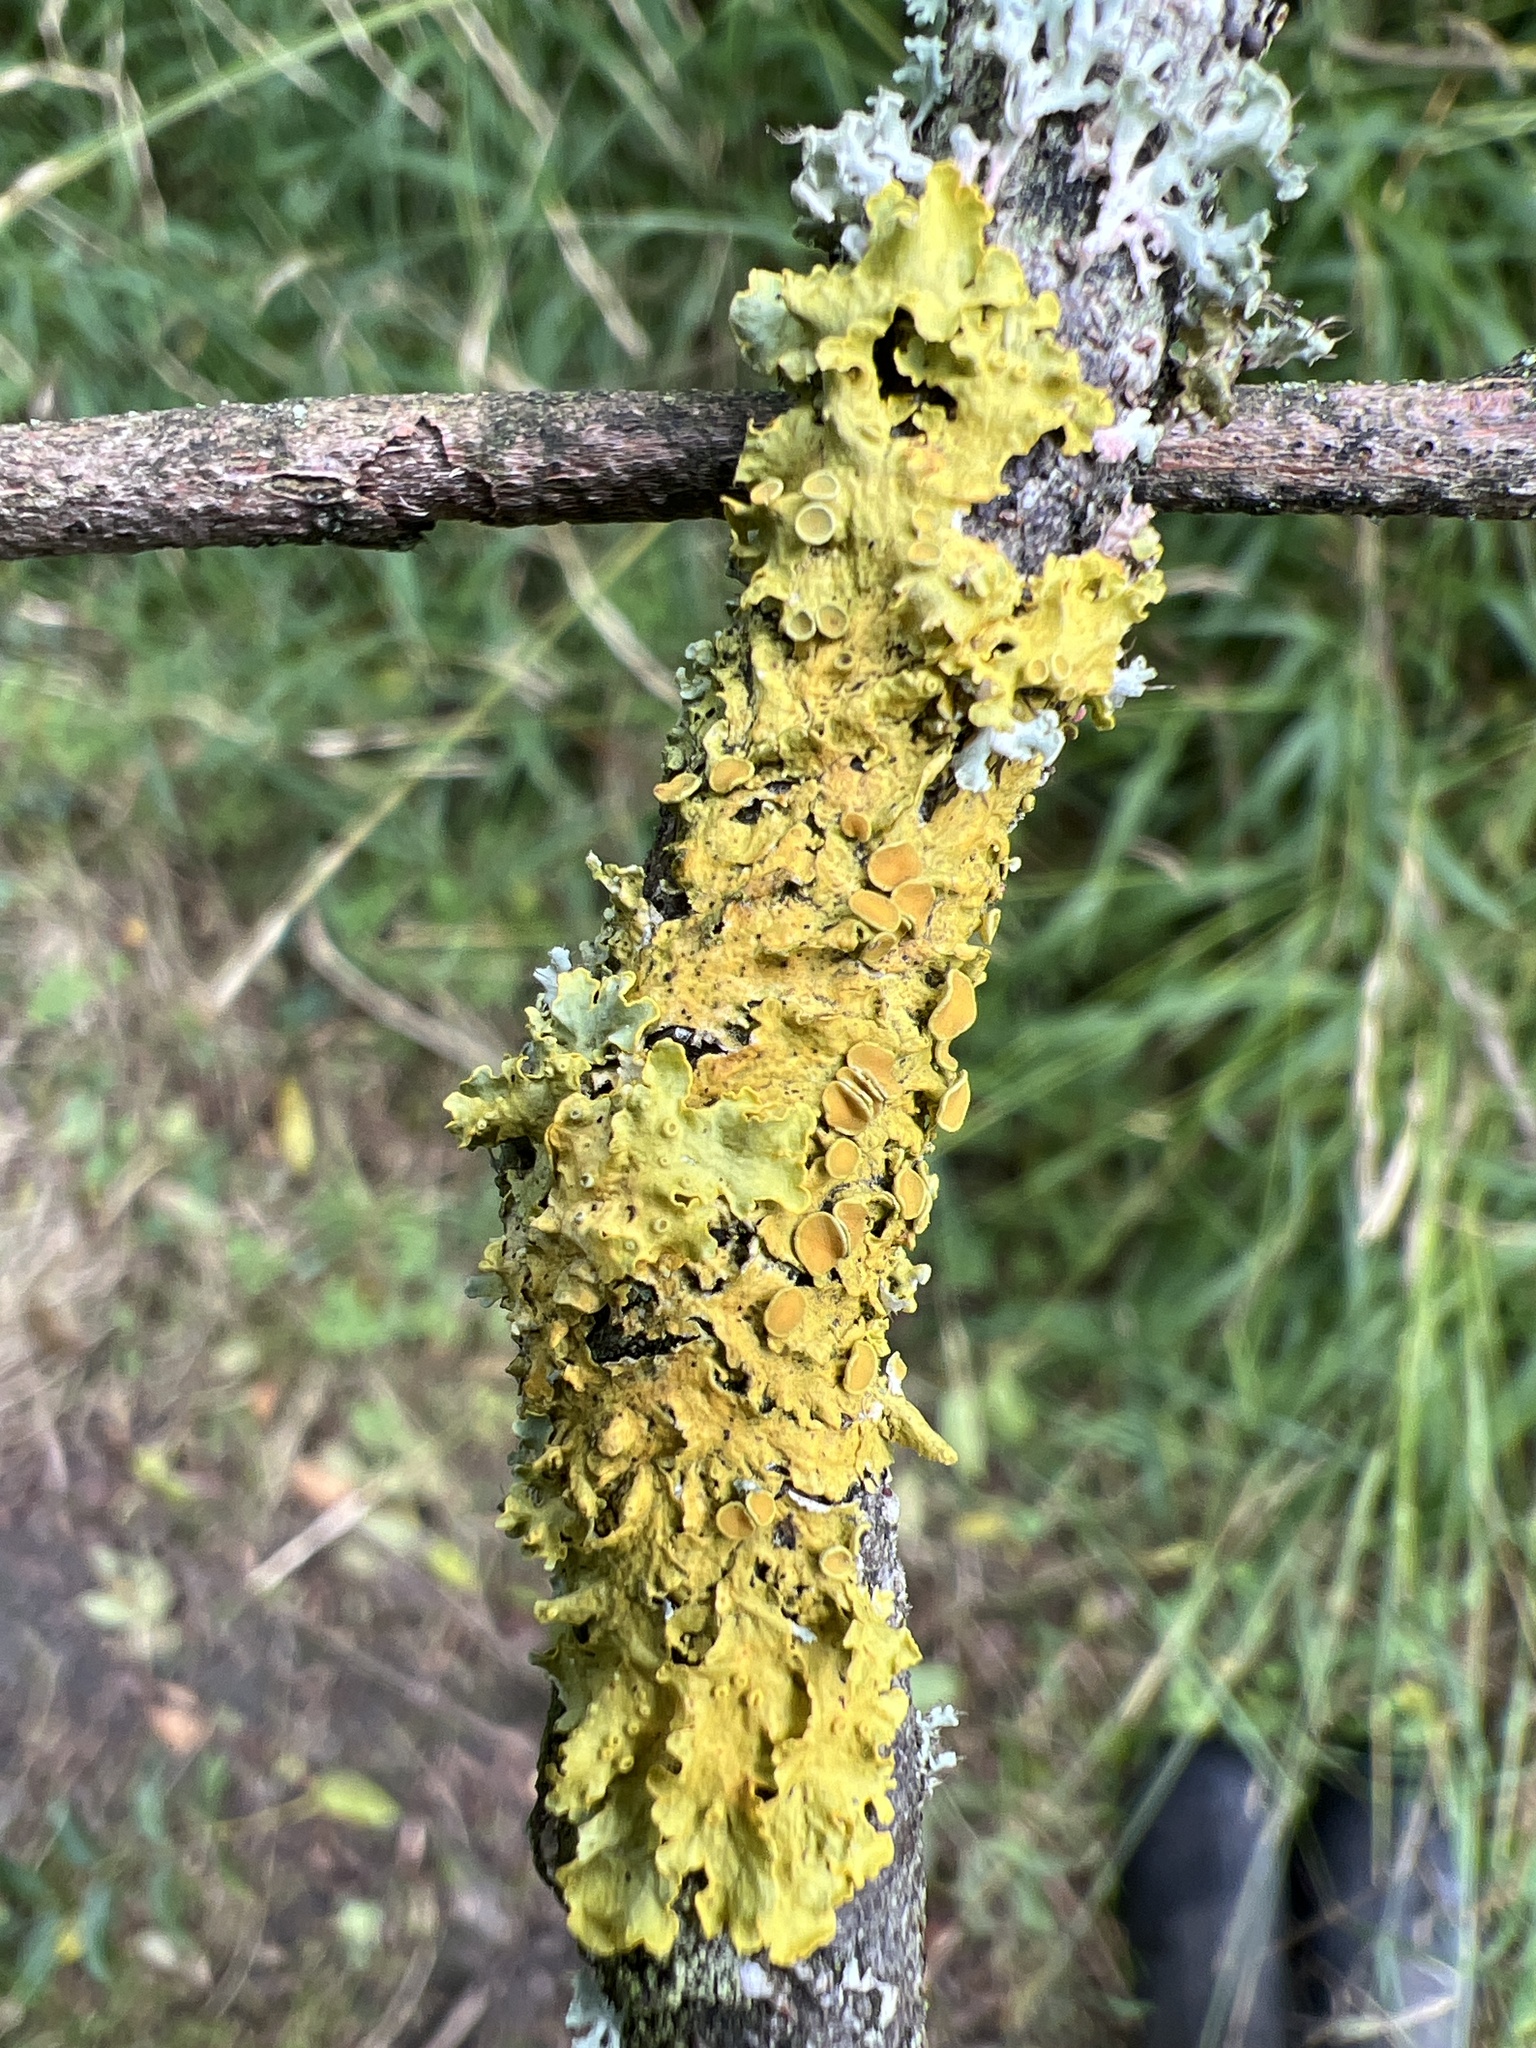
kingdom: Fungi
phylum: Ascomycota
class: Lecanoromycetes
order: Teloschistales
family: Teloschistaceae
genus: Xanthoria
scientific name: Xanthoria parietina
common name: Common orange lichen
